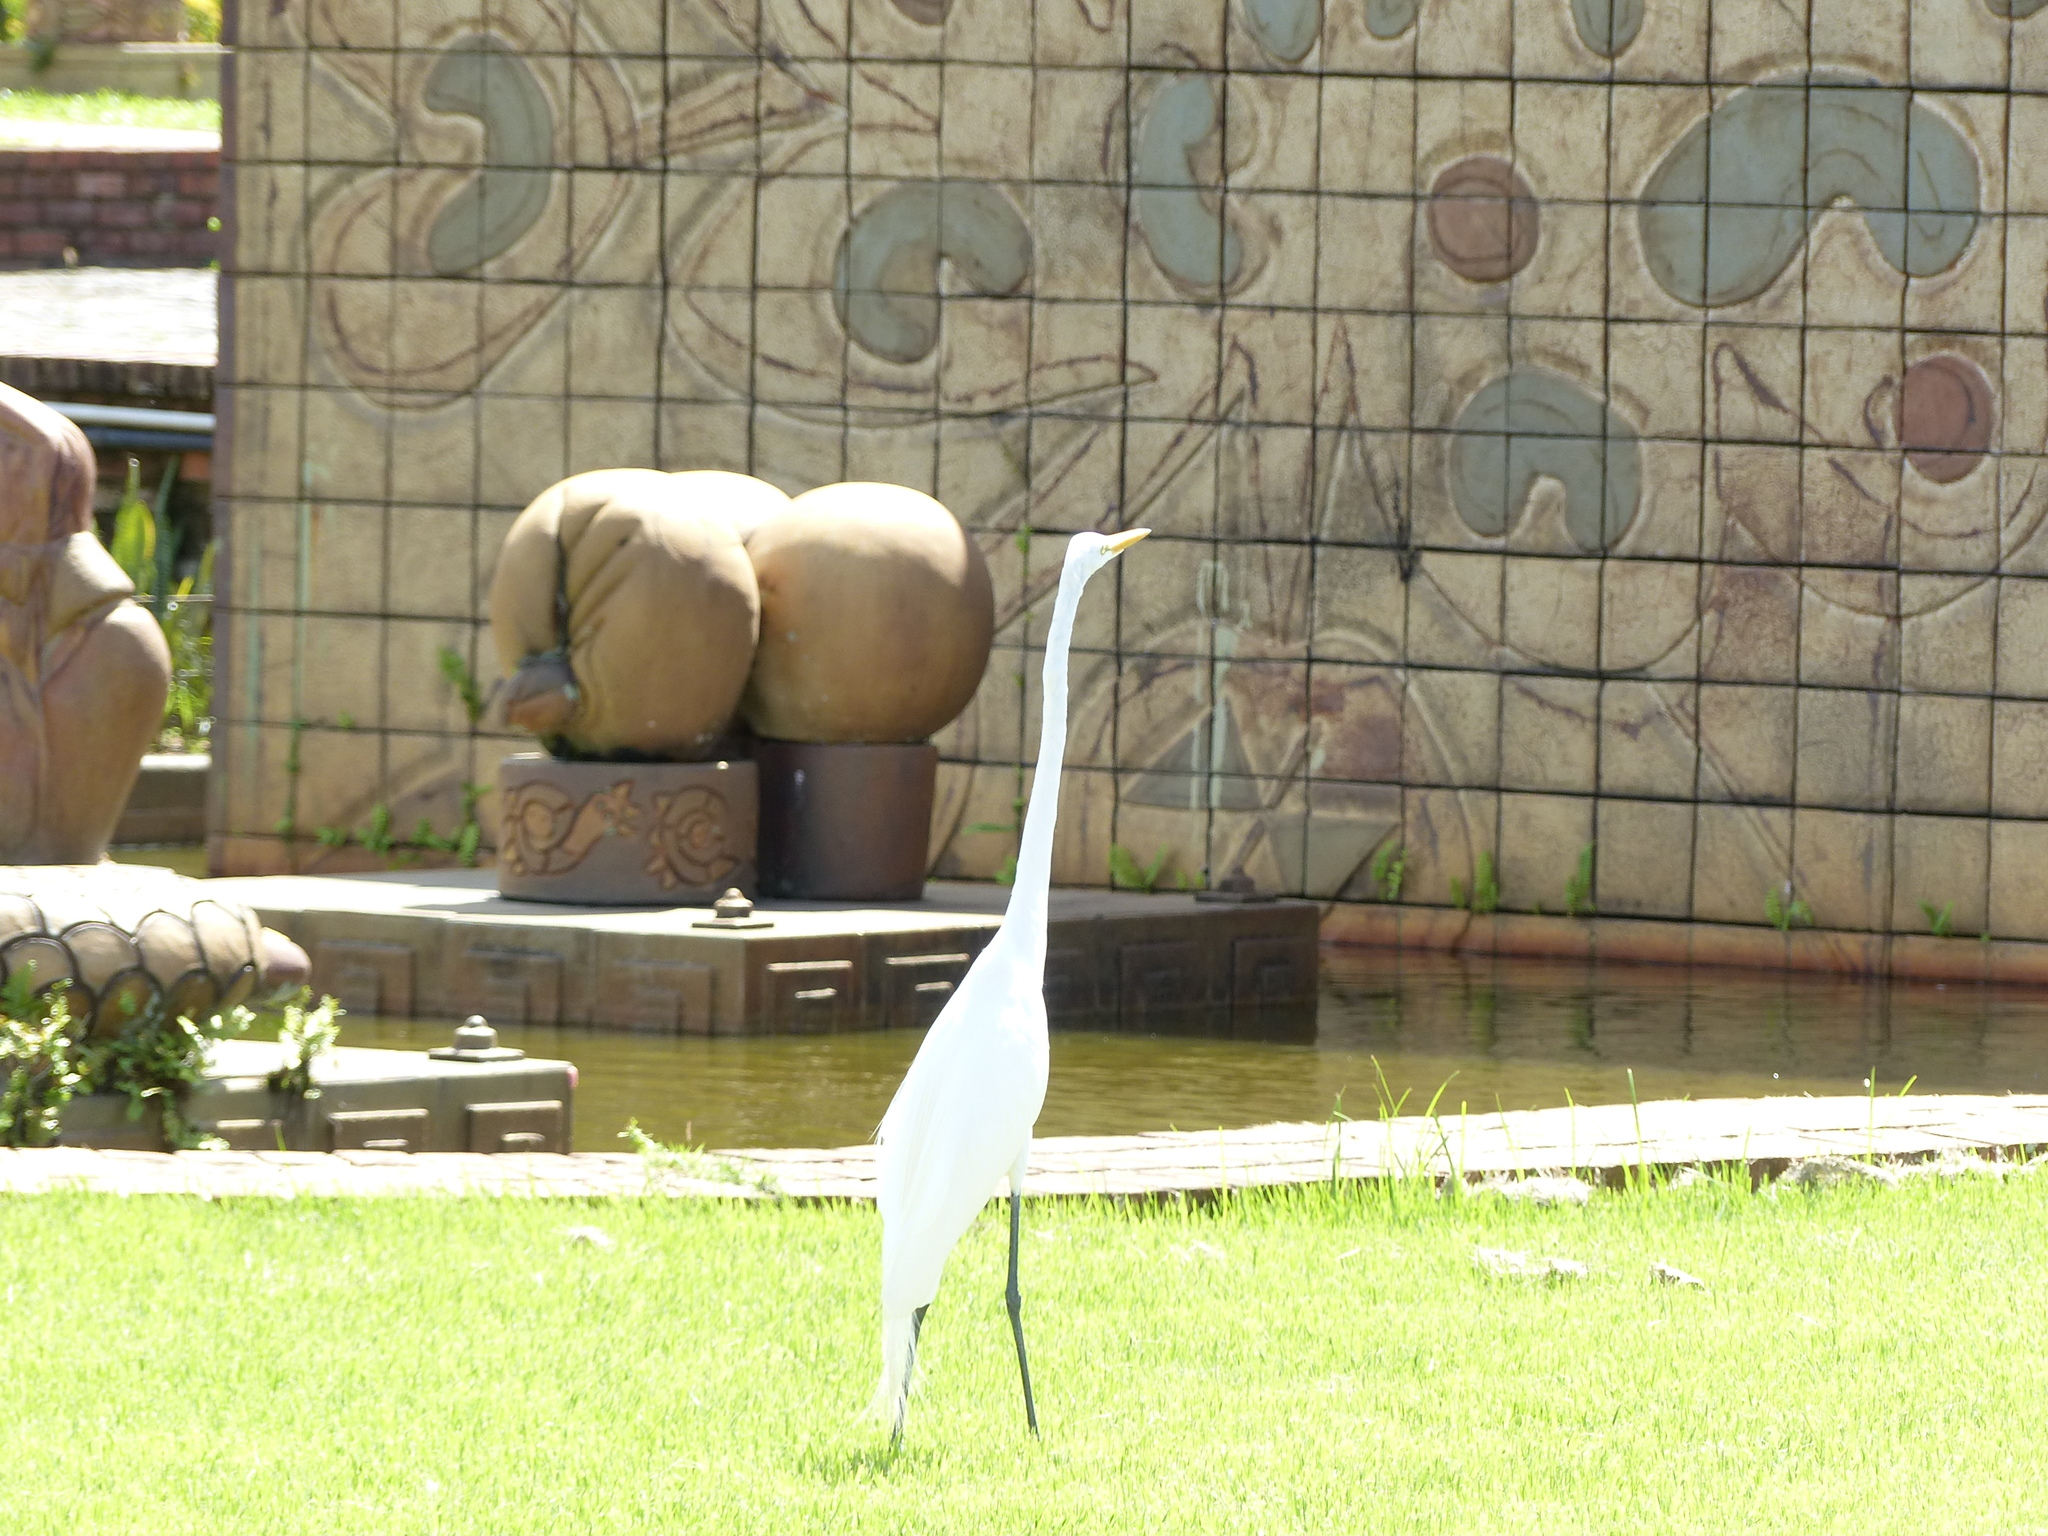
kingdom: Animalia
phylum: Chordata
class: Aves
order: Pelecaniformes
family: Ardeidae
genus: Ardea
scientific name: Ardea alba
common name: Great egret
